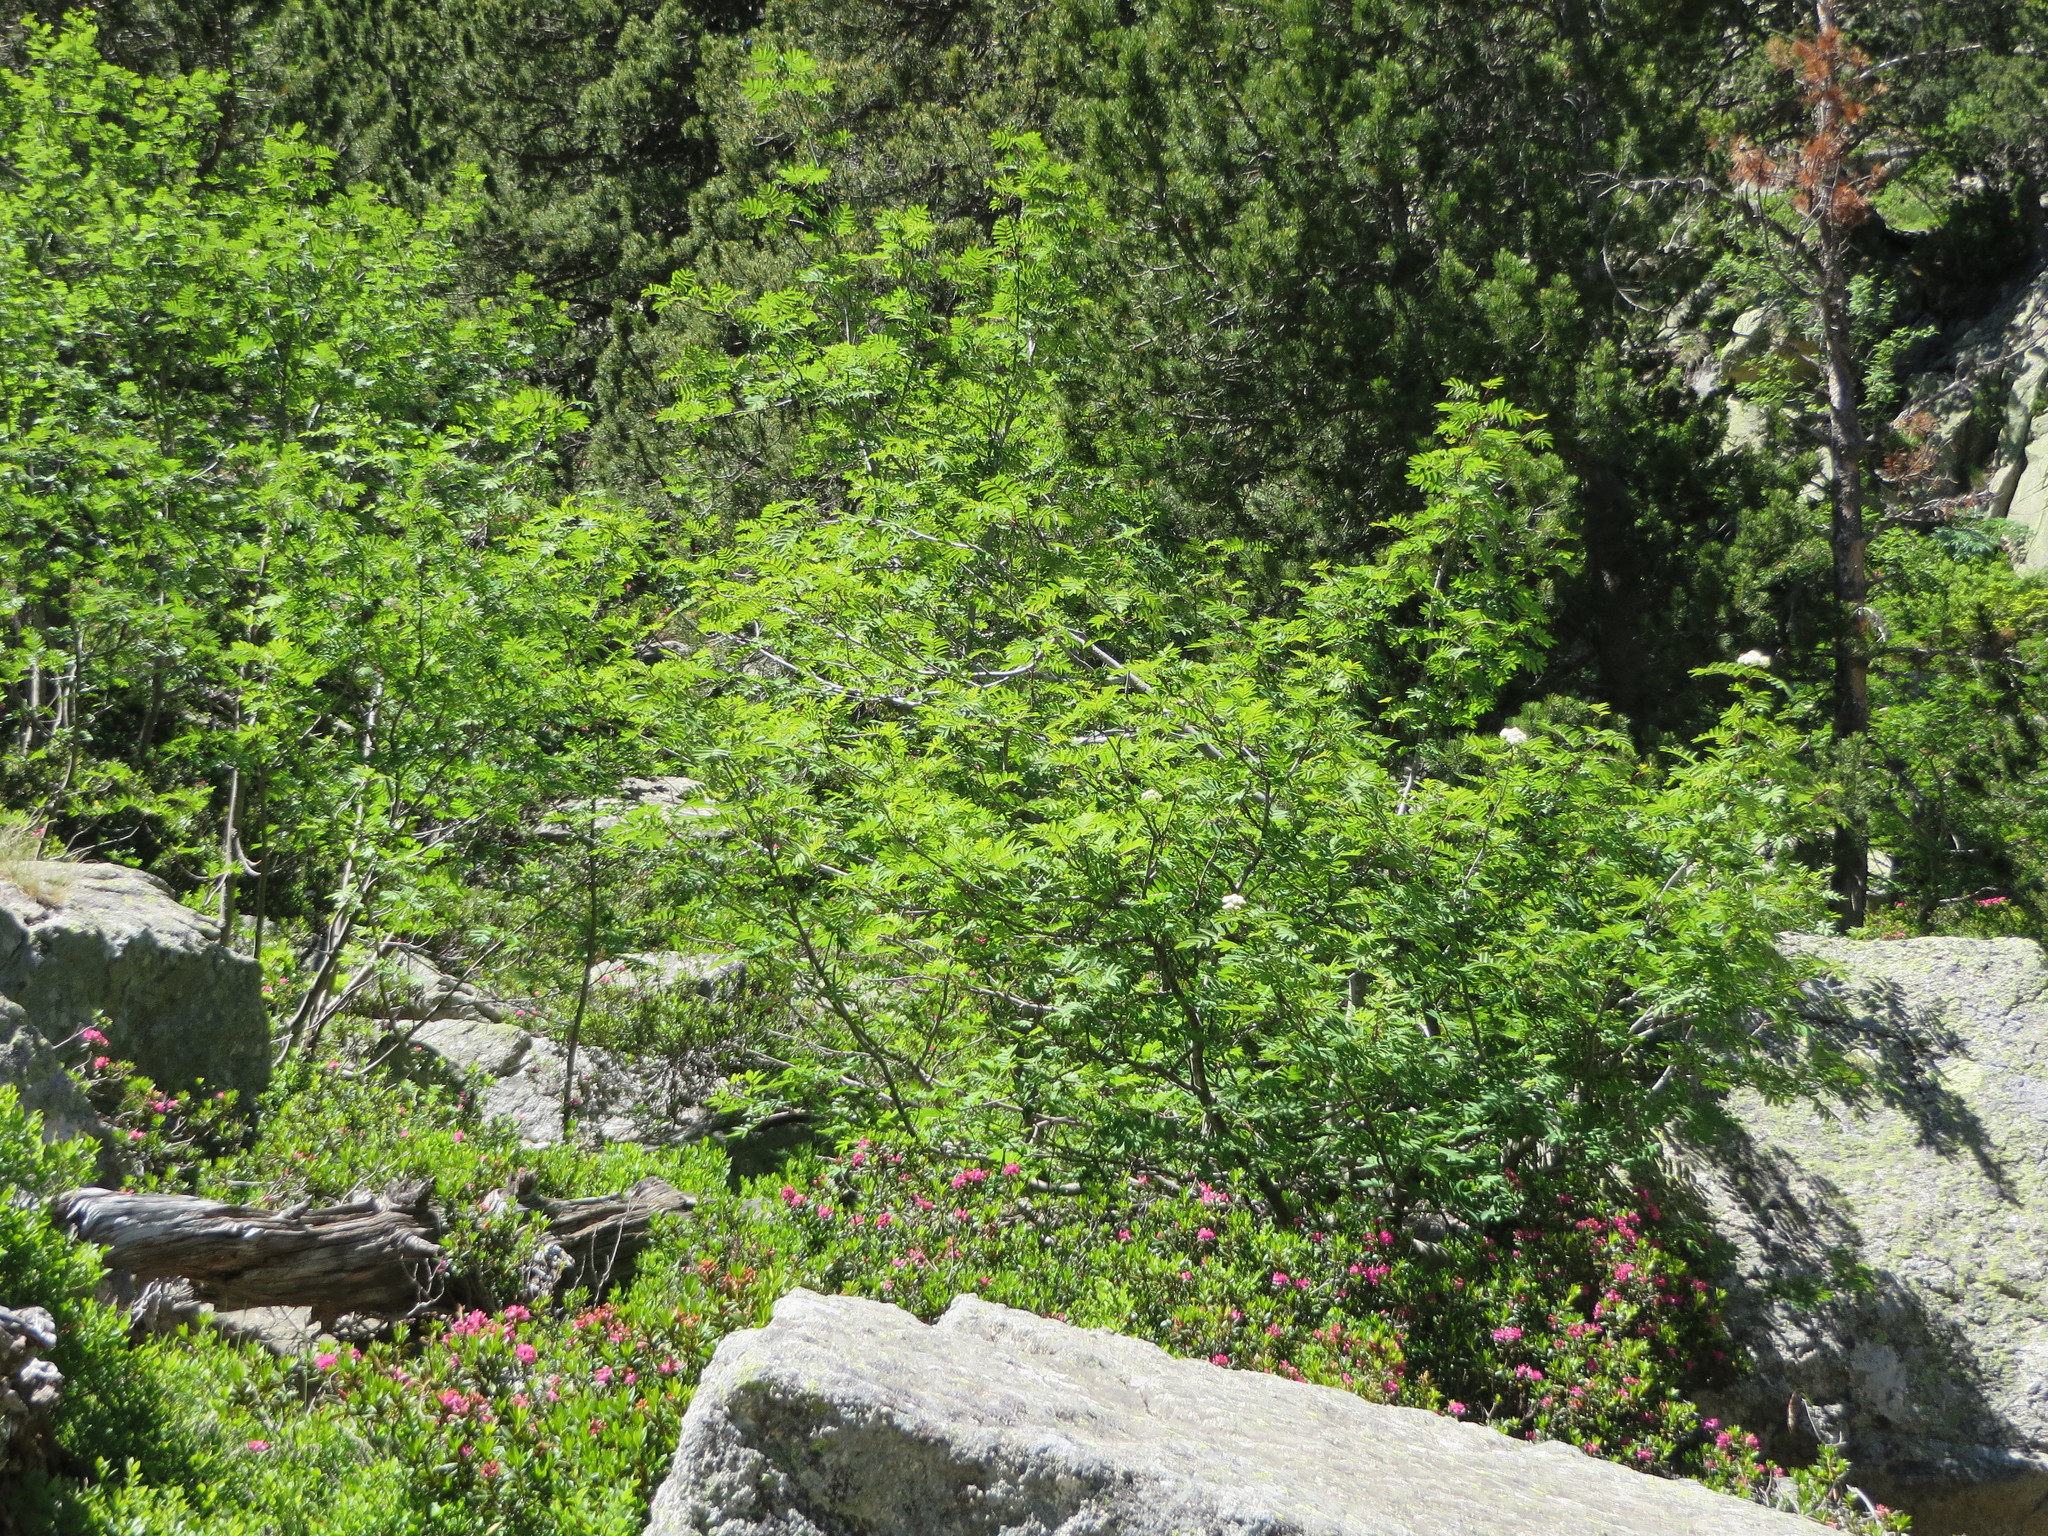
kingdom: Plantae
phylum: Tracheophyta
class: Magnoliopsida
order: Rosales
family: Rosaceae
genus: Sorbus
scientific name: Sorbus aucuparia
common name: Rowan
